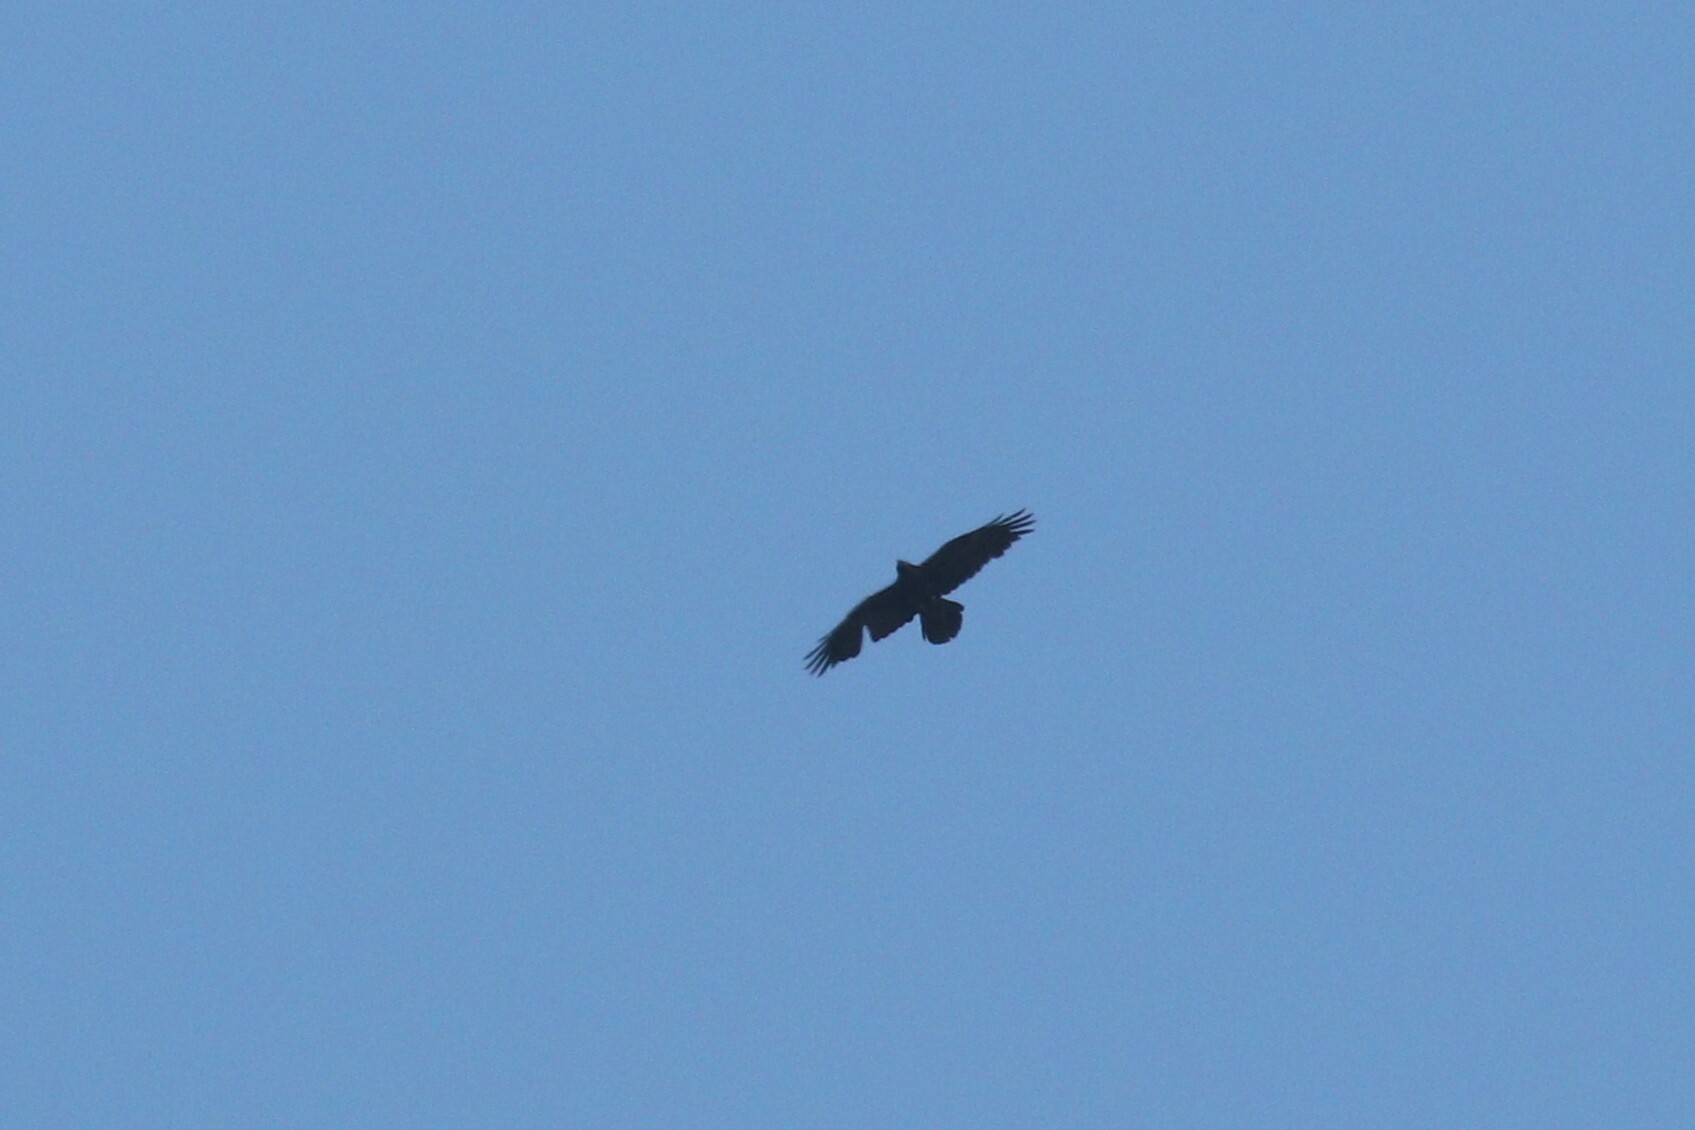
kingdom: Animalia
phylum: Chordata
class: Aves
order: Passeriformes
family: Corvidae
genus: Corvus
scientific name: Corvus corax
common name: Common raven
